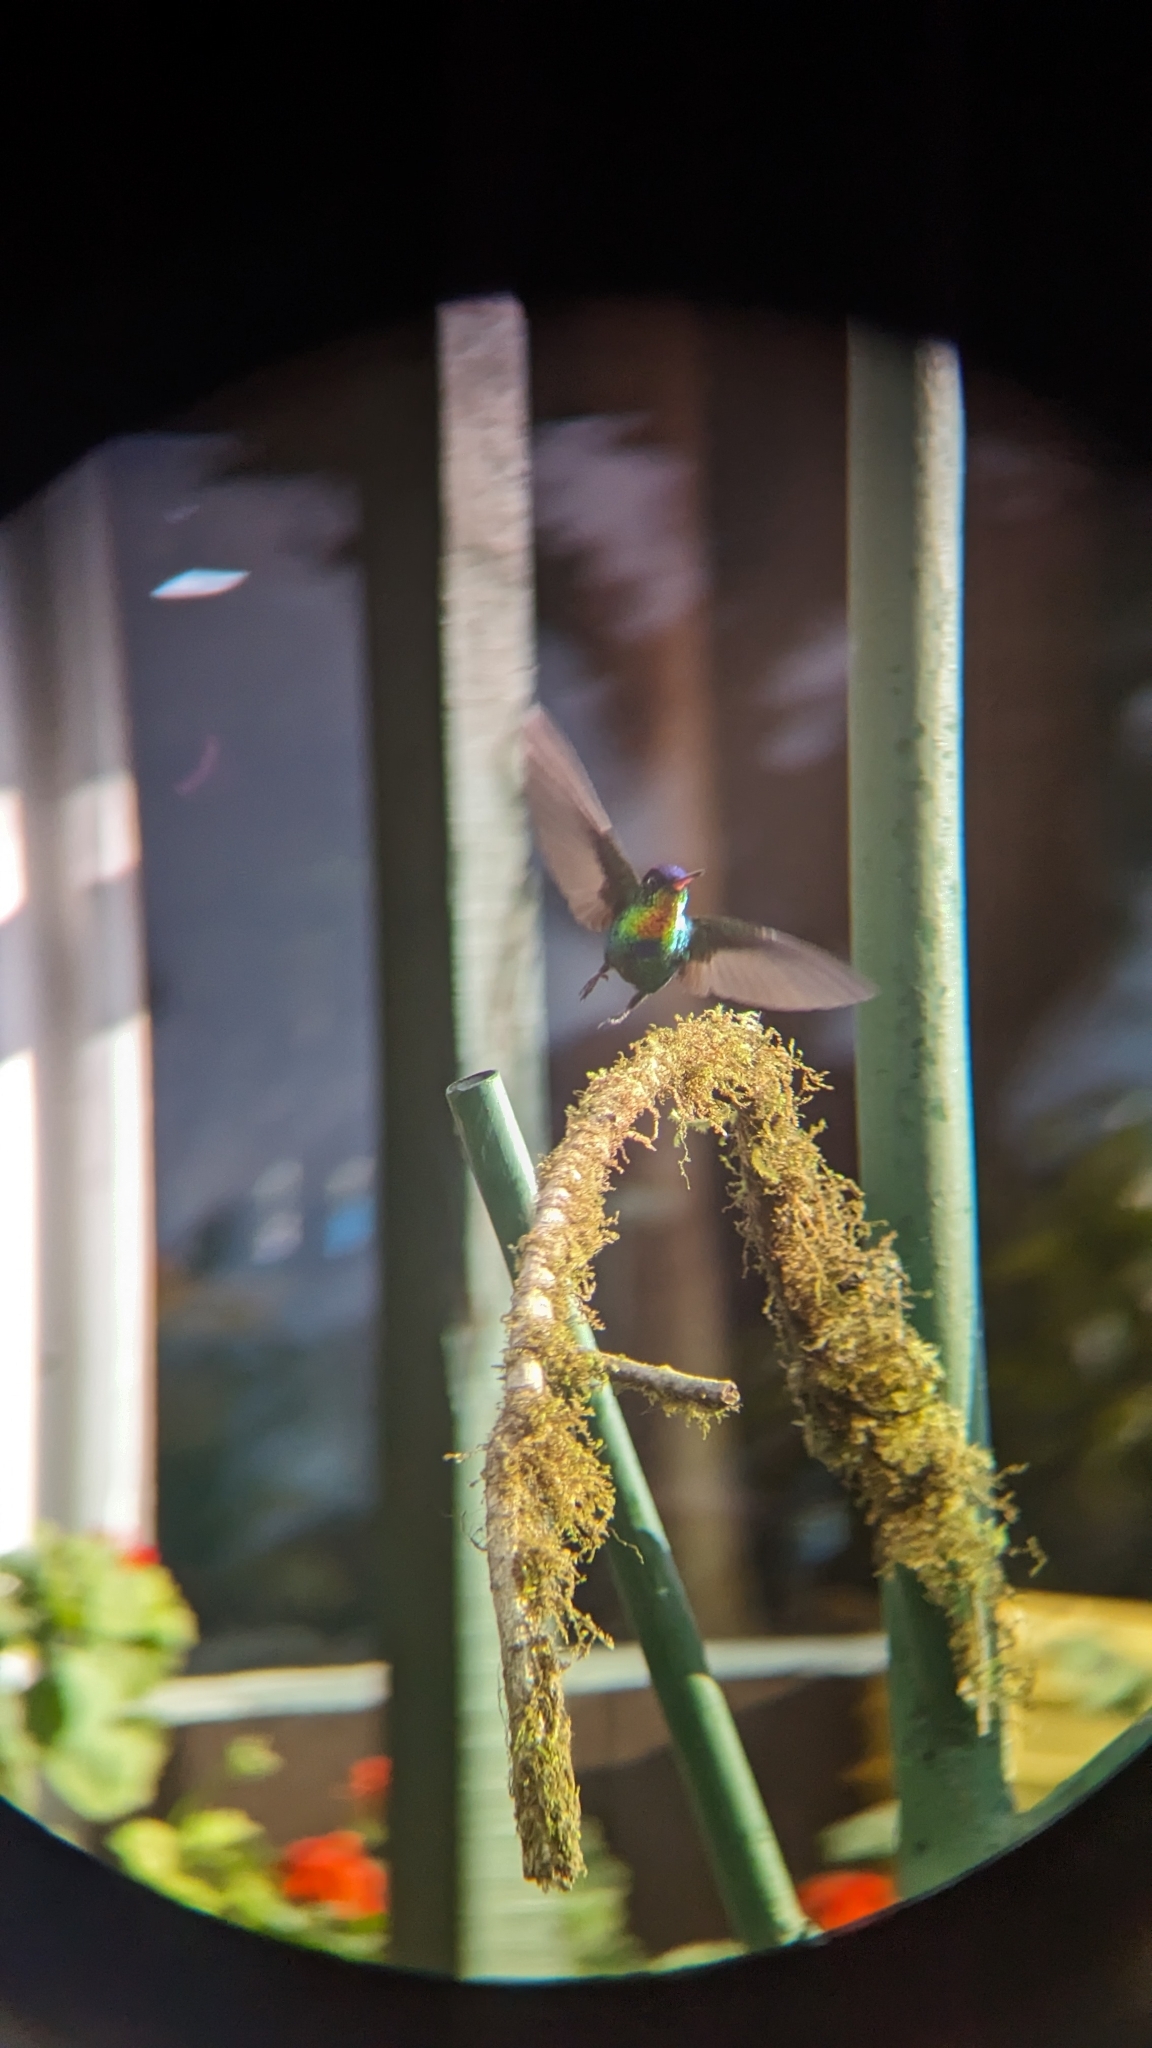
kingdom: Animalia
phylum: Chordata
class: Aves
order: Apodiformes
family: Trochilidae
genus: Panterpe
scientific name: Panterpe insignis
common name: Fiery-throated hummingbird
